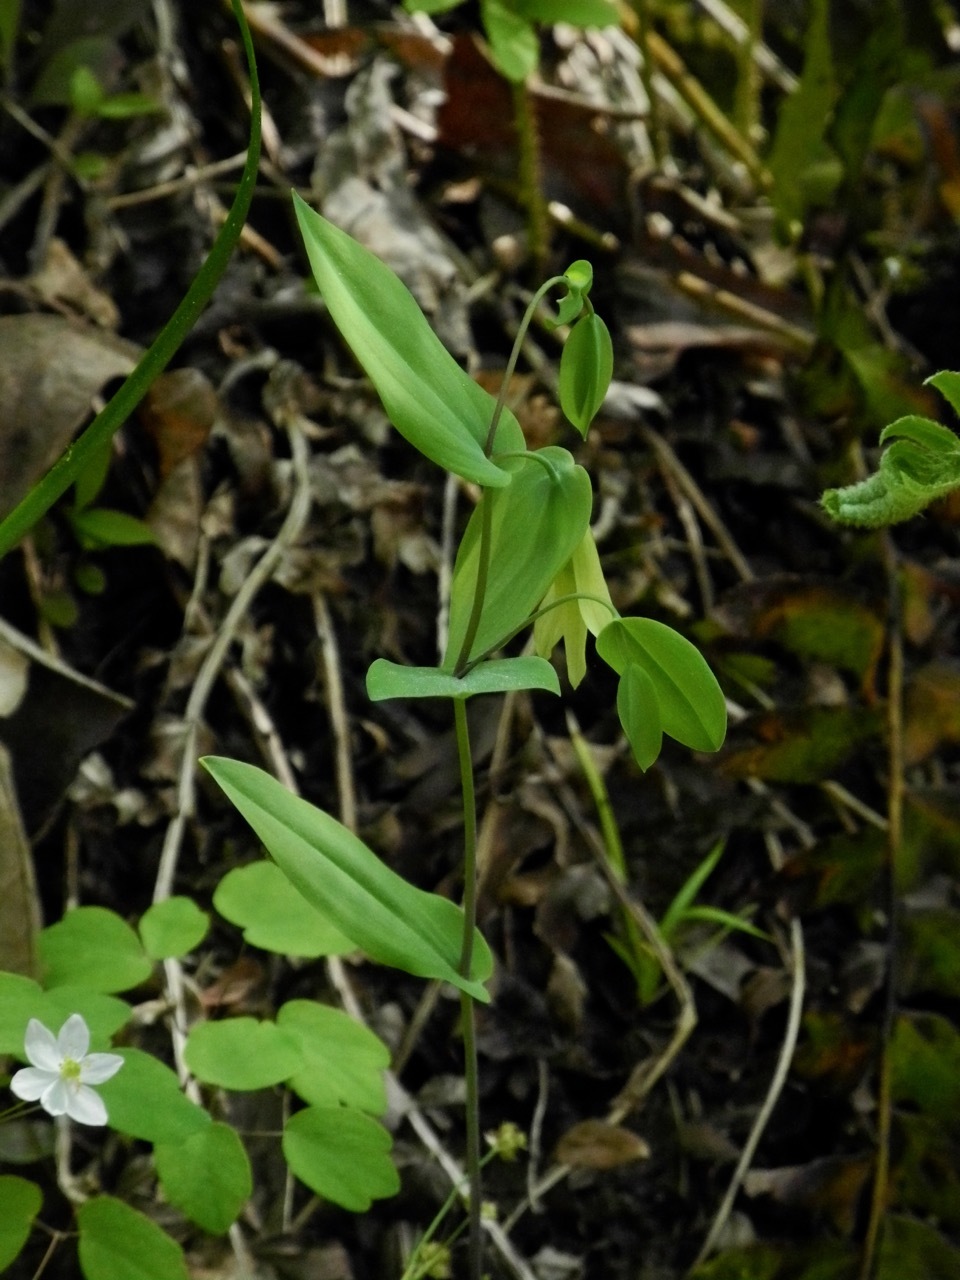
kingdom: Plantae
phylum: Tracheophyta
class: Liliopsida
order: Liliales
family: Colchicaceae
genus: Uvularia
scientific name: Uvularia perfoliata
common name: Perfoliate bellwort
